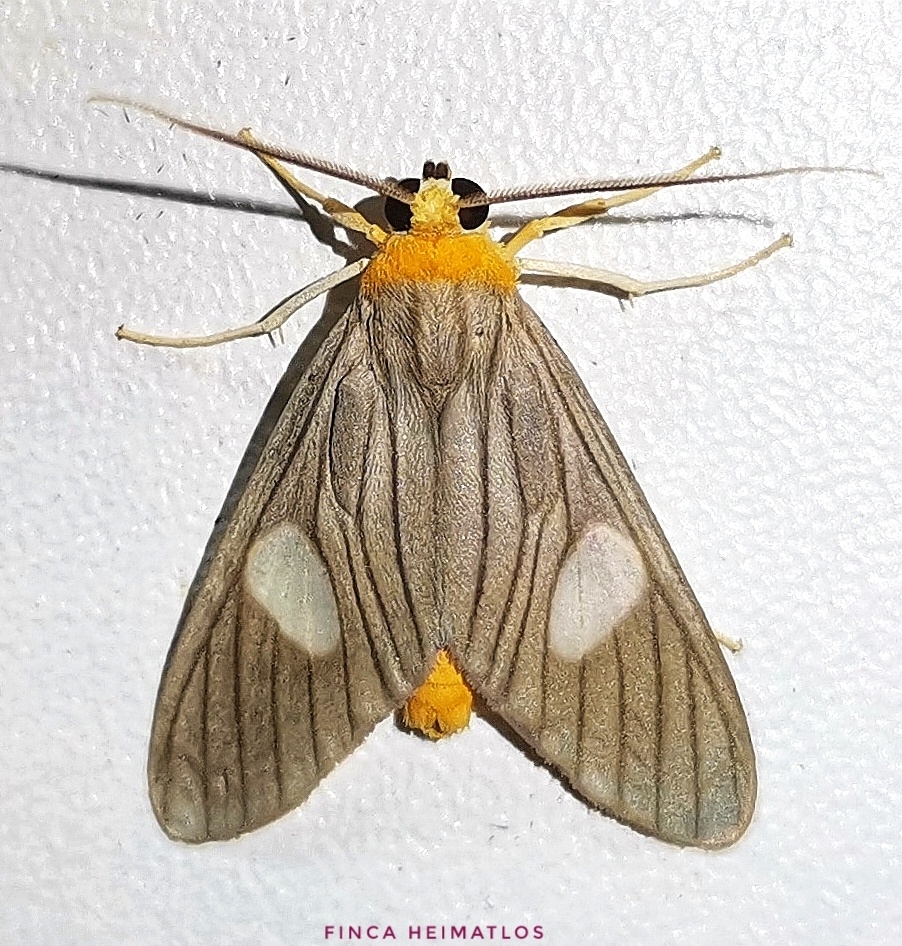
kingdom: Animalia
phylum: Arthropoda
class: Insecta
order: Lepidoptera
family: Erebidae
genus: Neritos
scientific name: Neritos sorex
